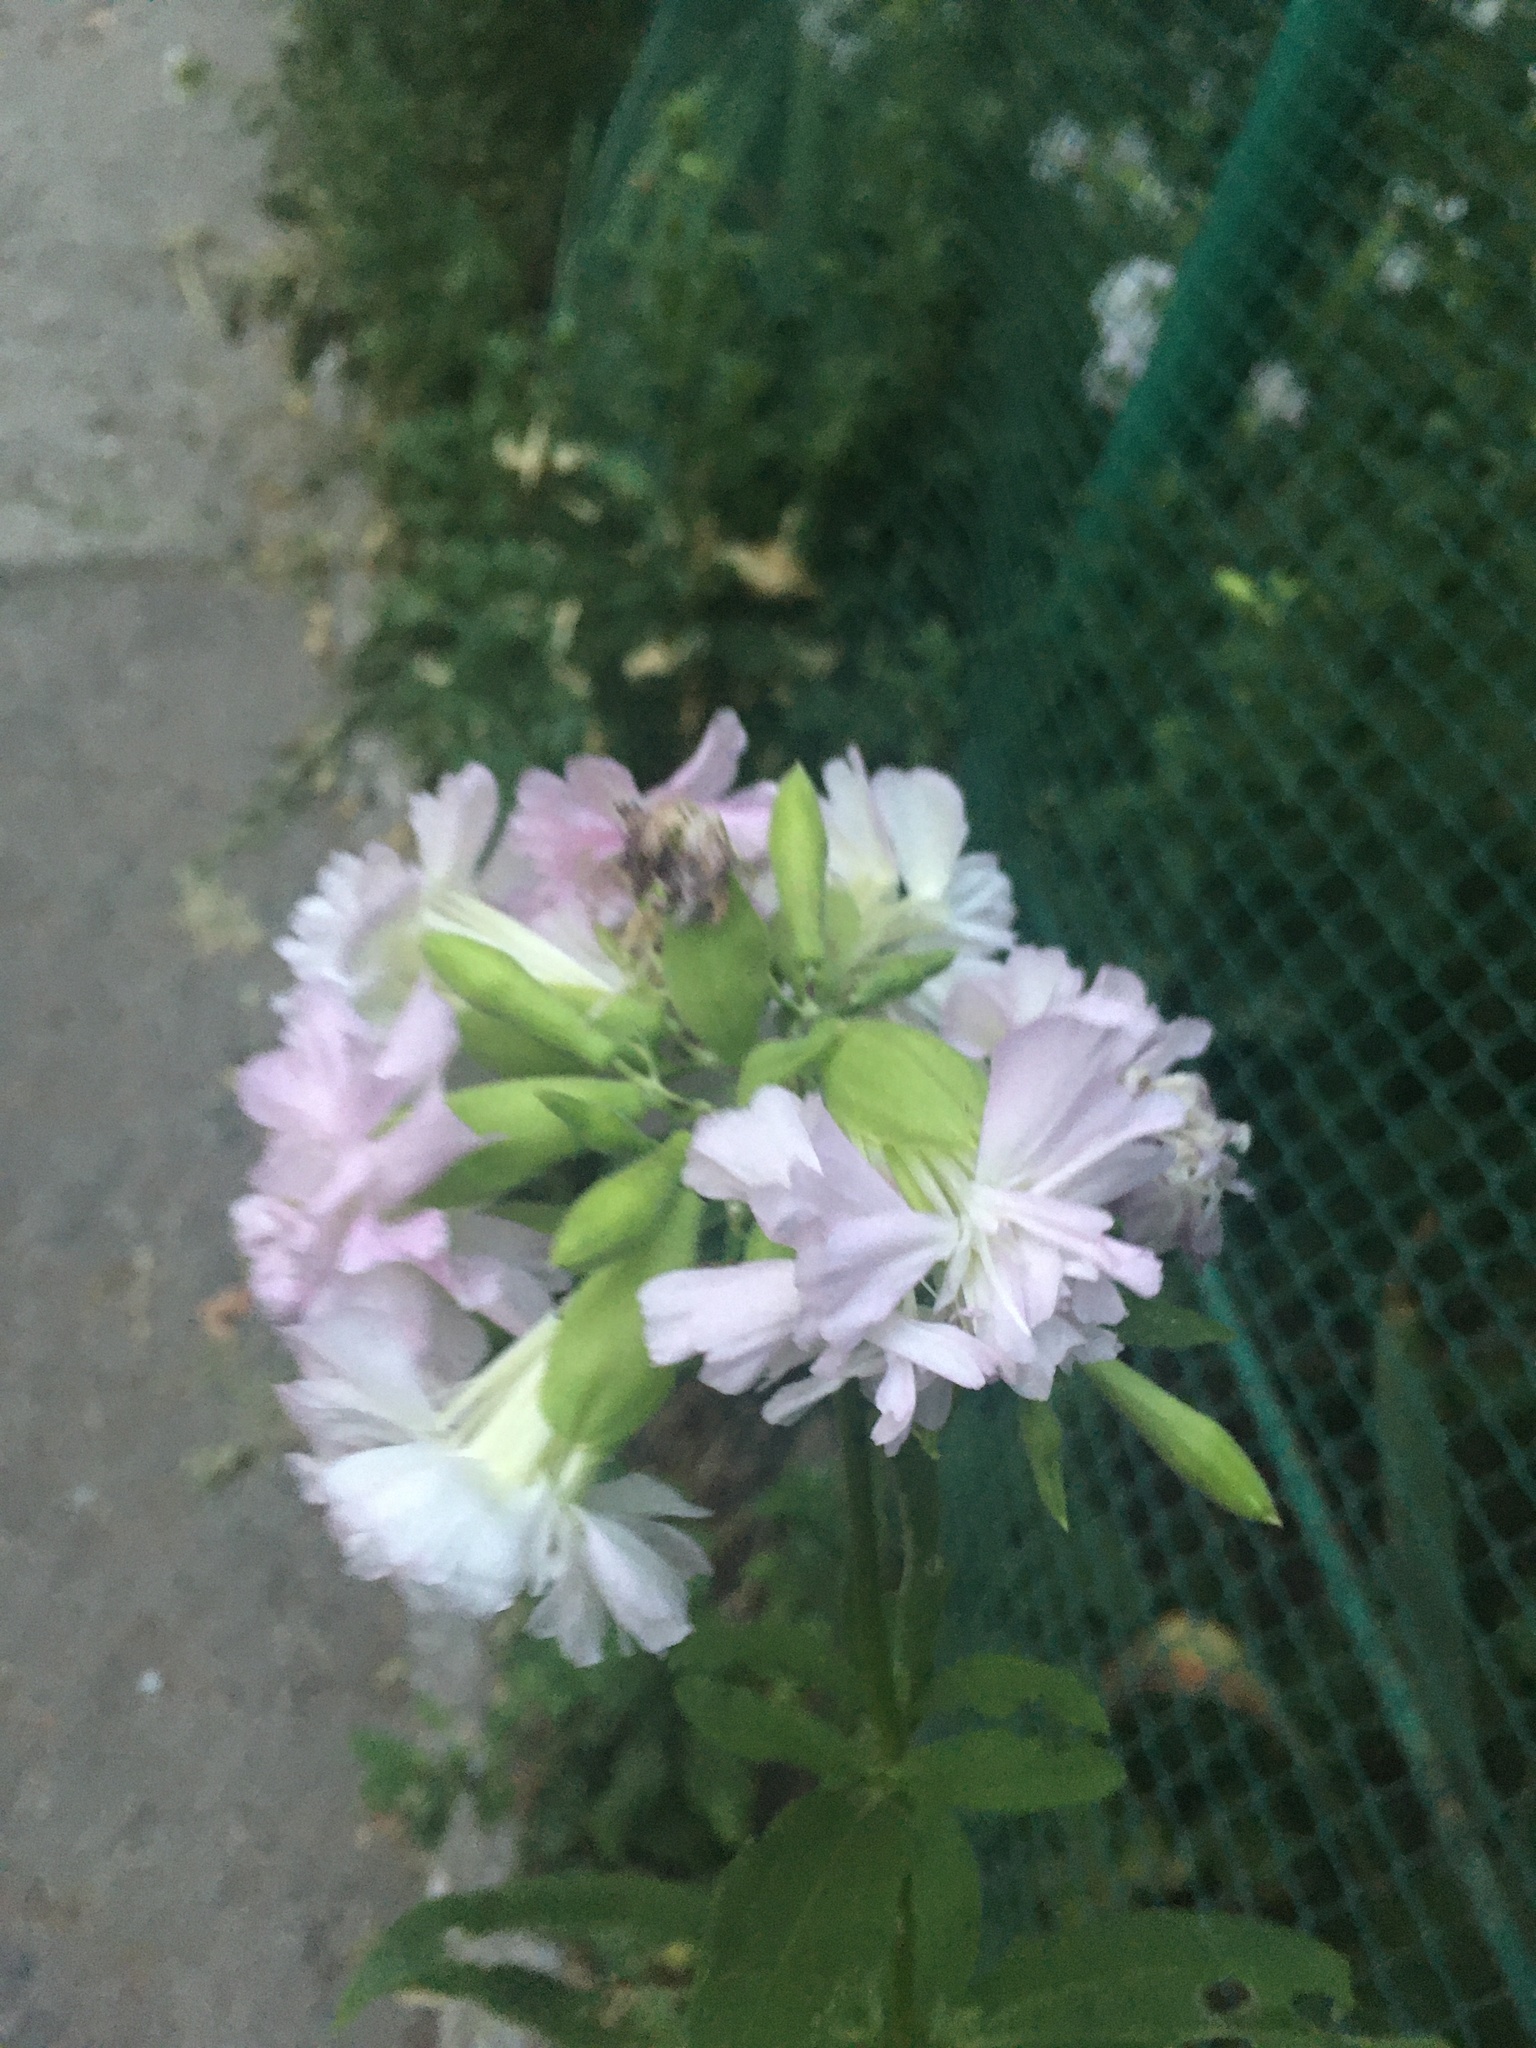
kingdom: Plantae
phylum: Tracheophyta
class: Magnoliopsida
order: Caryophyllales
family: Caryophyllaceae
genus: Saponaria
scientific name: Saponaria officinalis
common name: Soapwort
